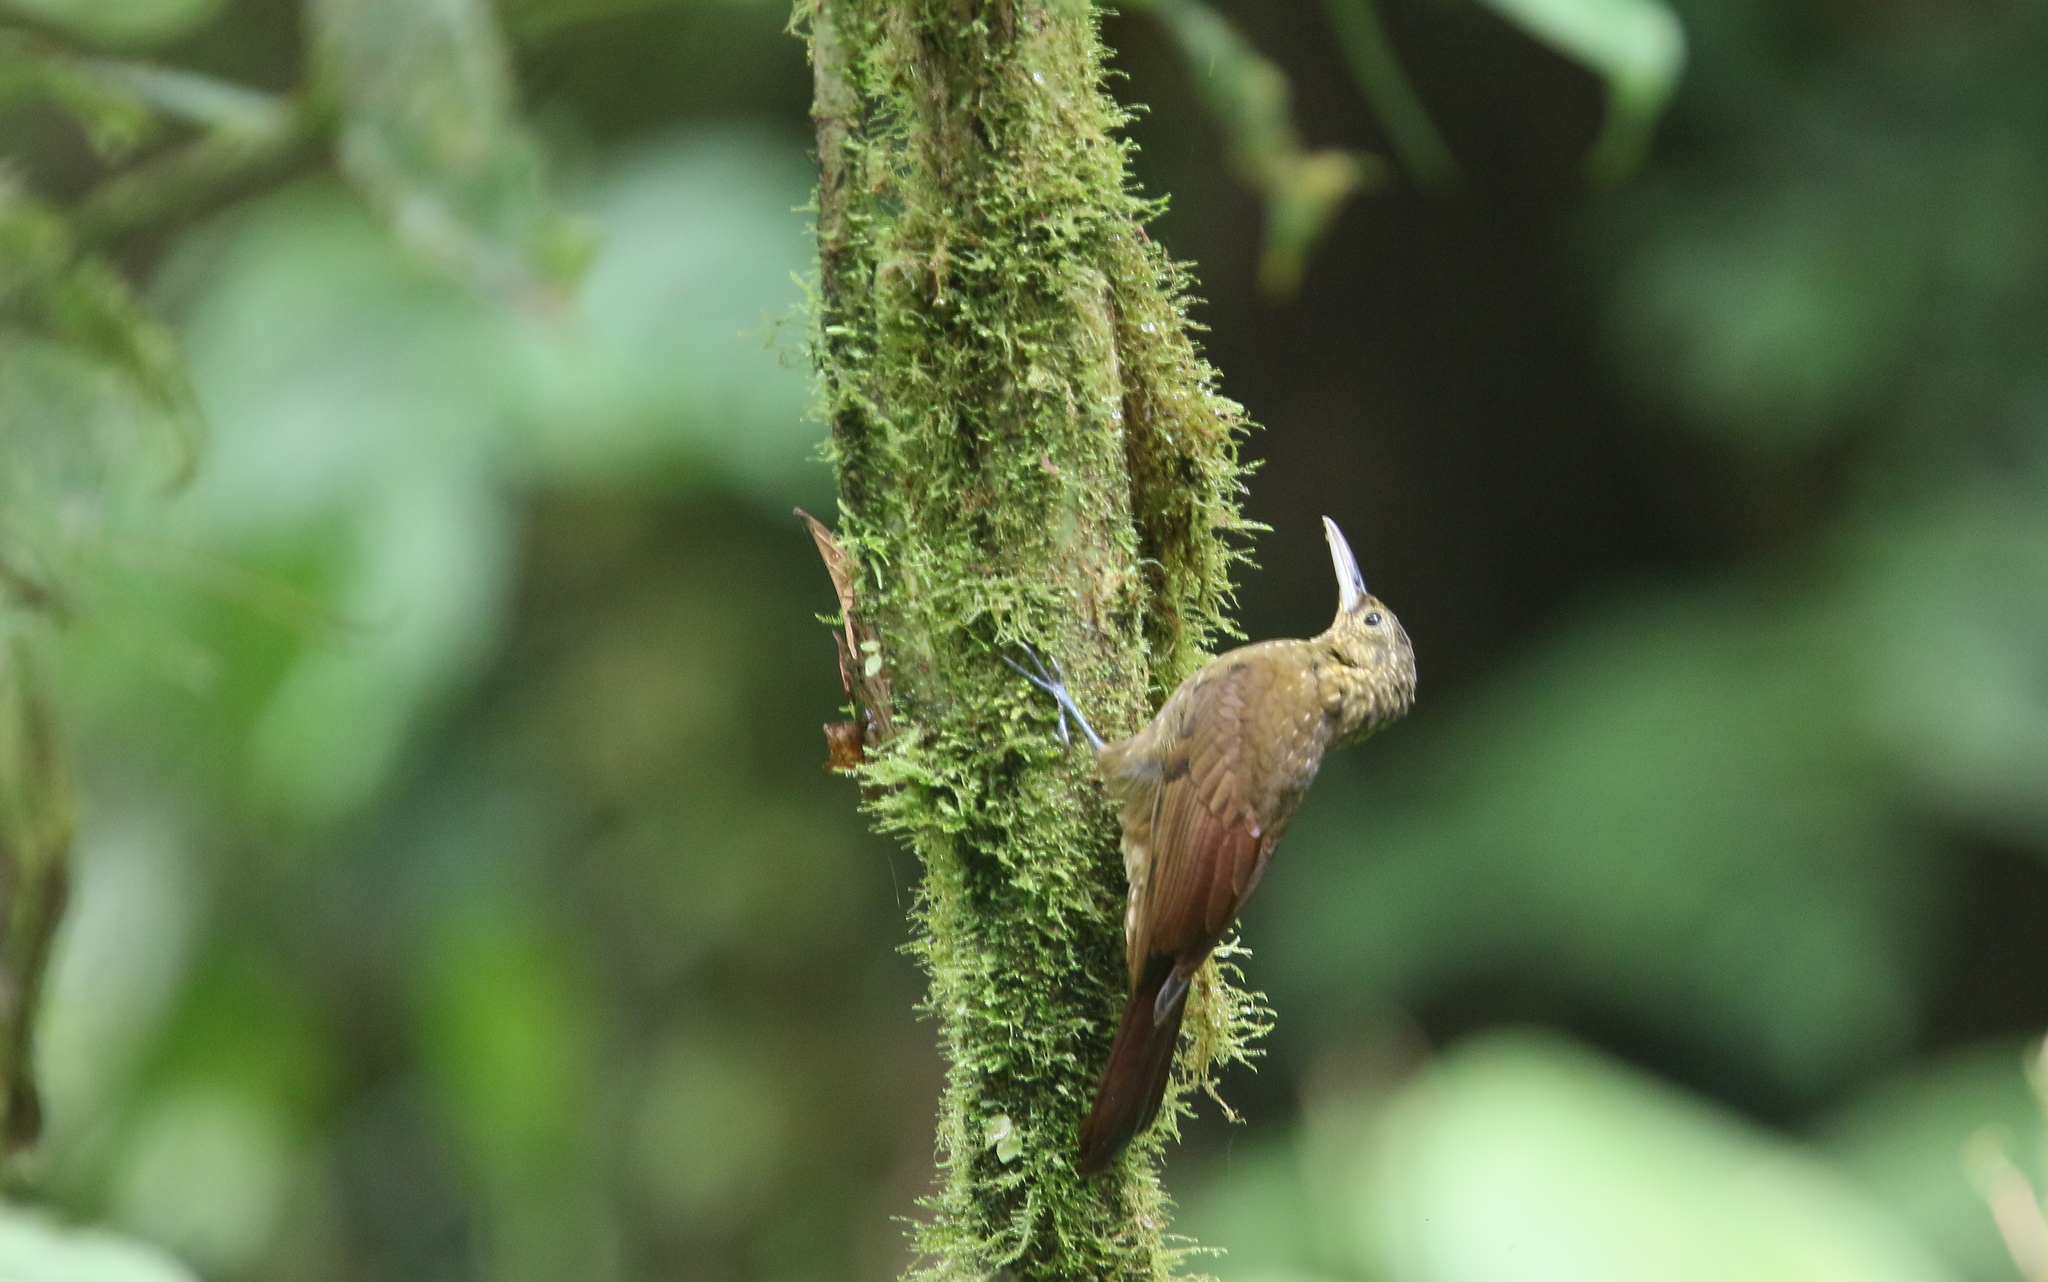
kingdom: Animalia
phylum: Chordata
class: Aves
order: Passeriformes
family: Furnariidae
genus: Xiphorhynchus
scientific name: Xiphorhynchus erythropygius
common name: Spotted woodcreeper
